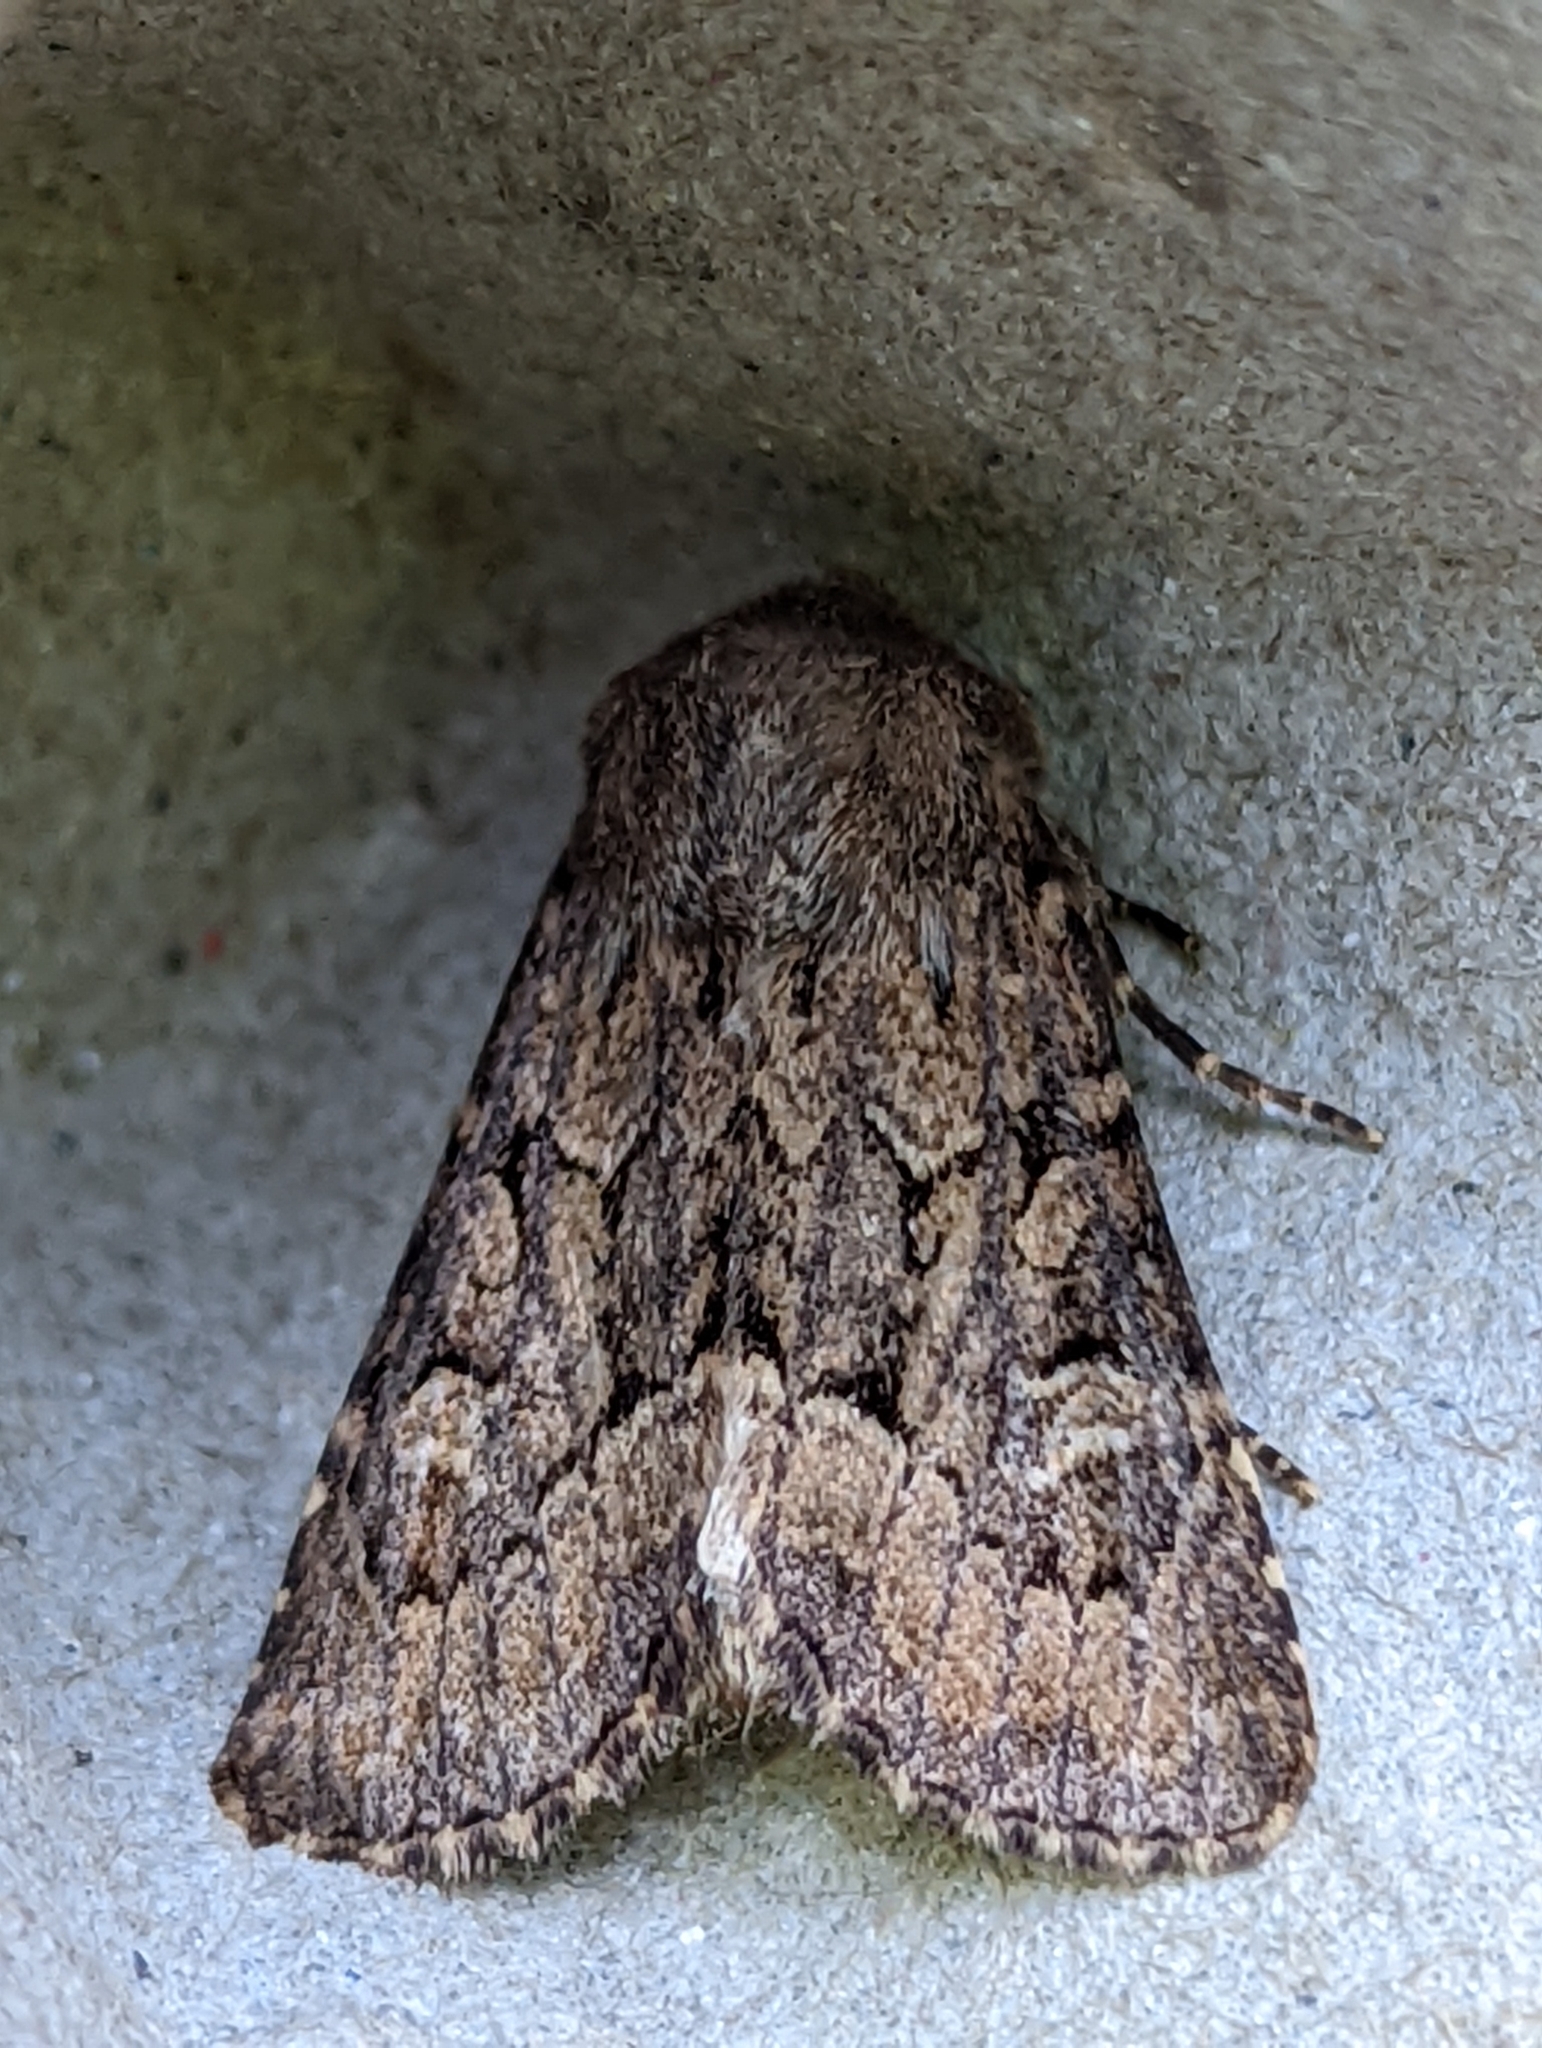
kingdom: Animalia
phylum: Arthropoda
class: Insecta
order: Lepidoptera
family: Noctuidae
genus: Luperina
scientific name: Luperina testacea
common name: Flounced rustic
